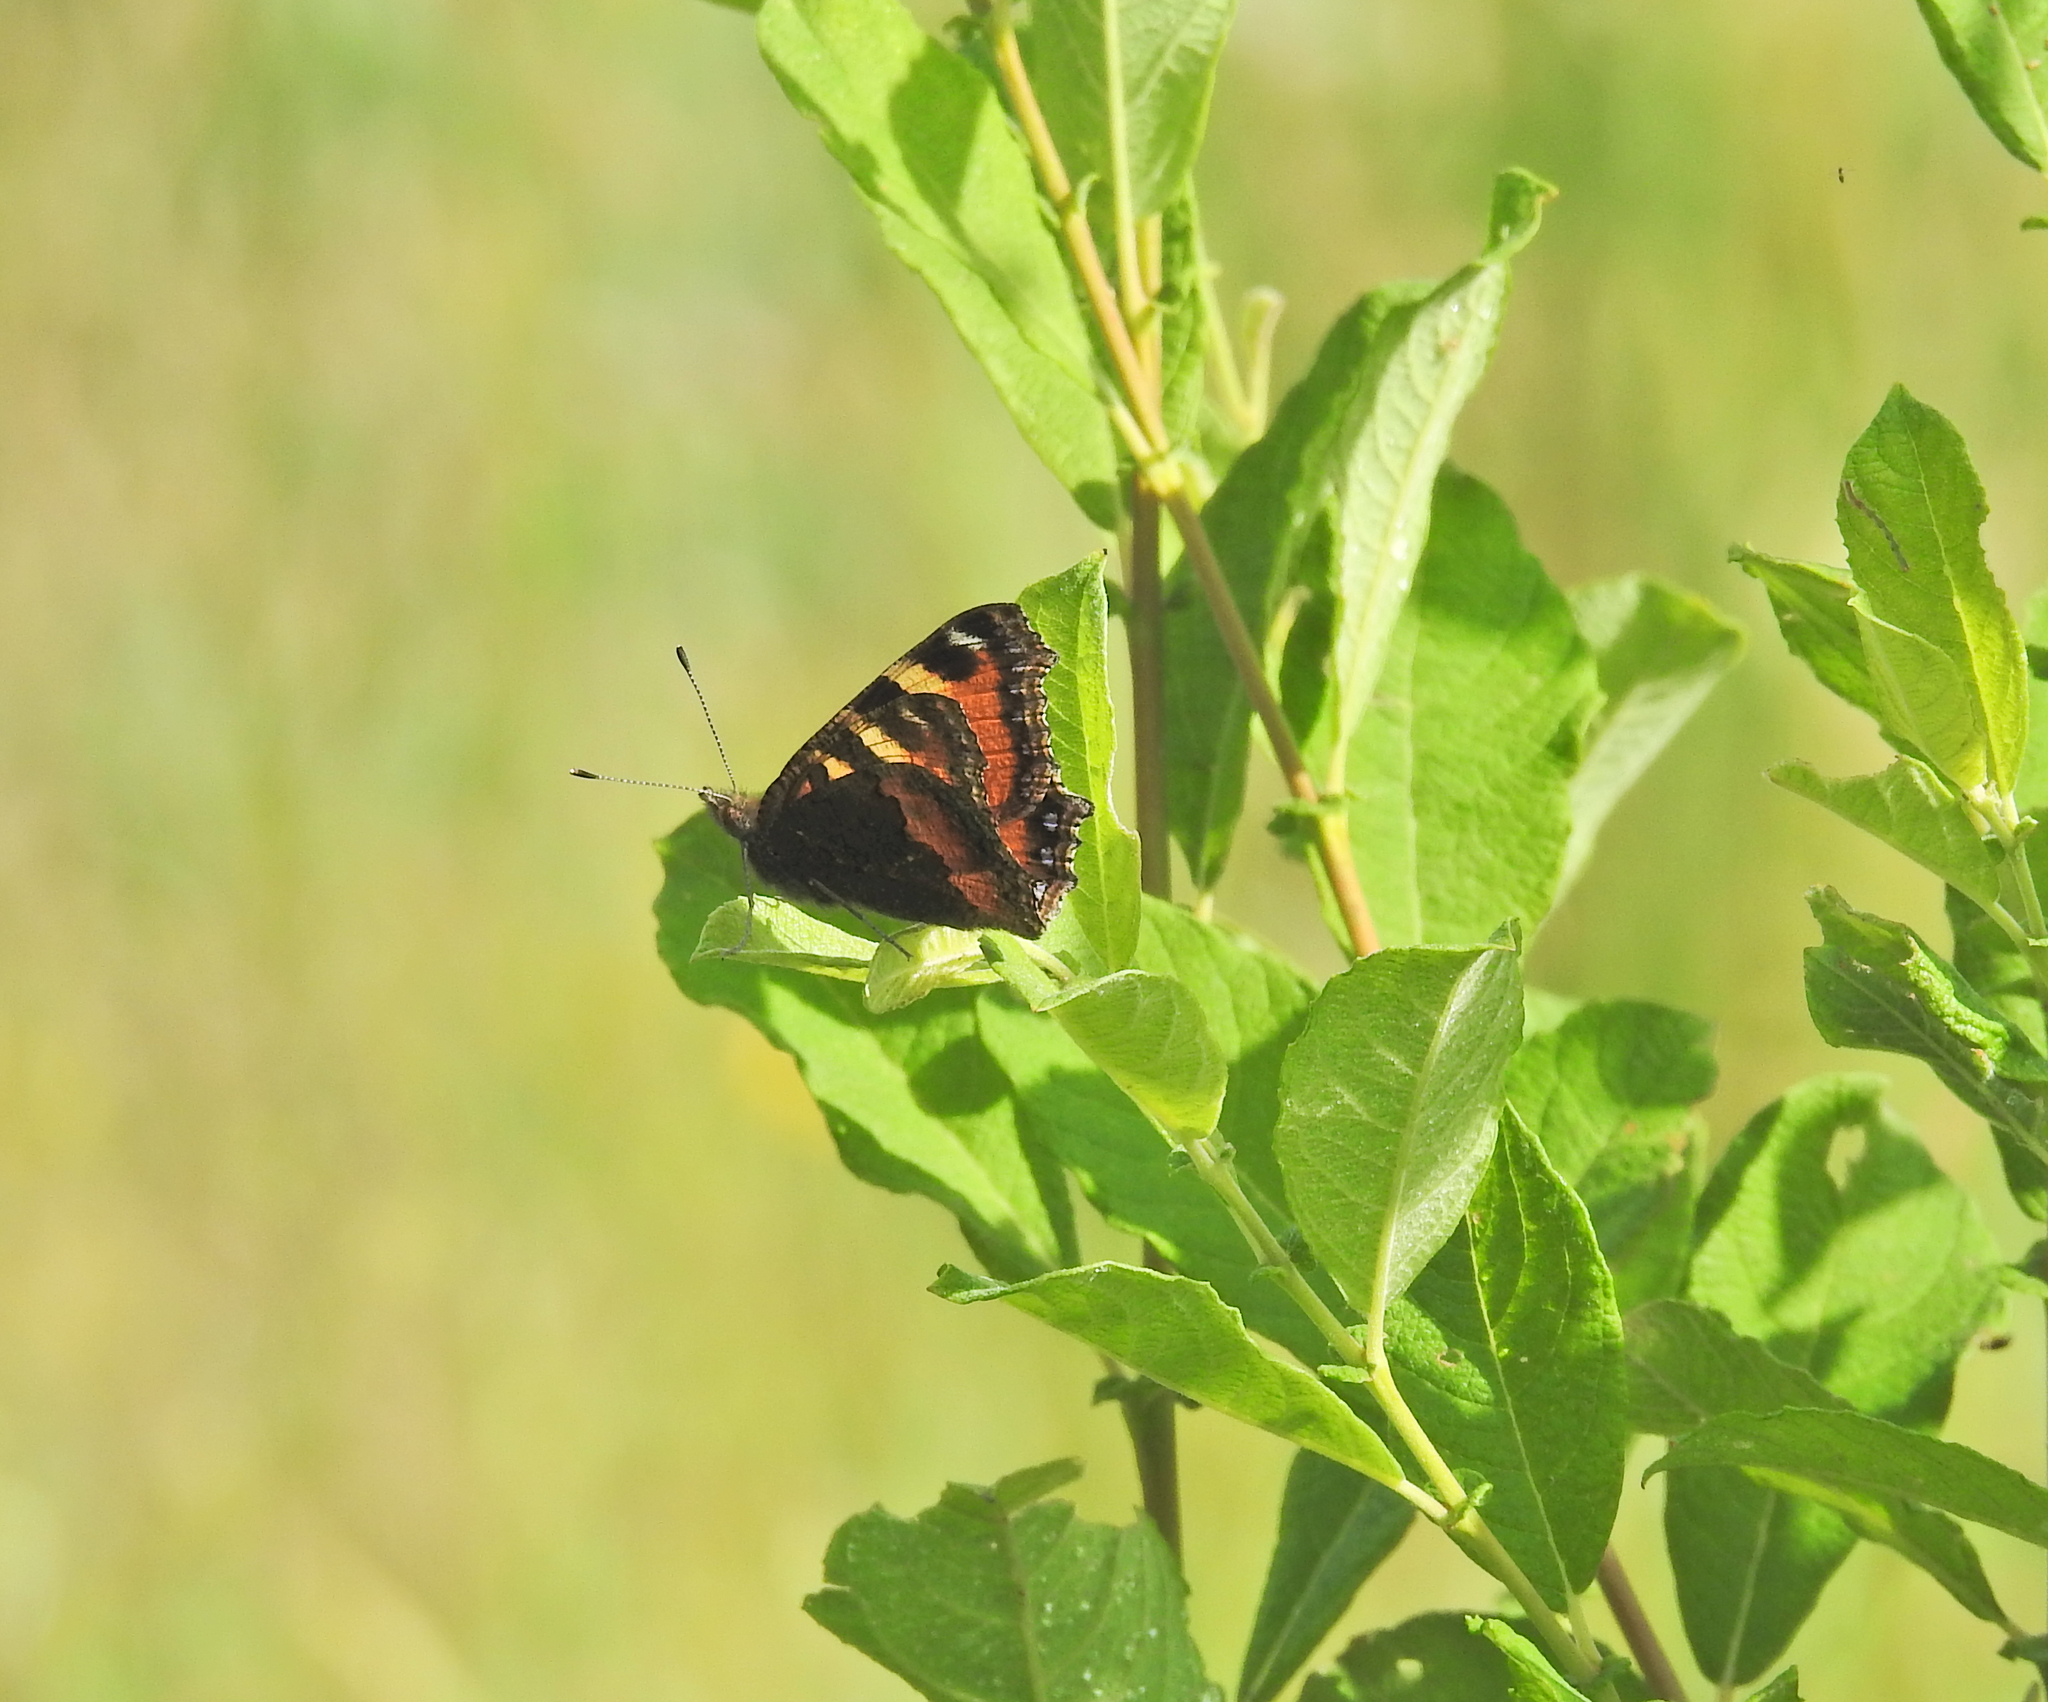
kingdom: Animalia
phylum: Arthropoda
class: Insecta
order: Lepidoptera
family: Nymphalidae
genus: Aglais
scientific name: Aglais urticae
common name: Small tortoiseshell
